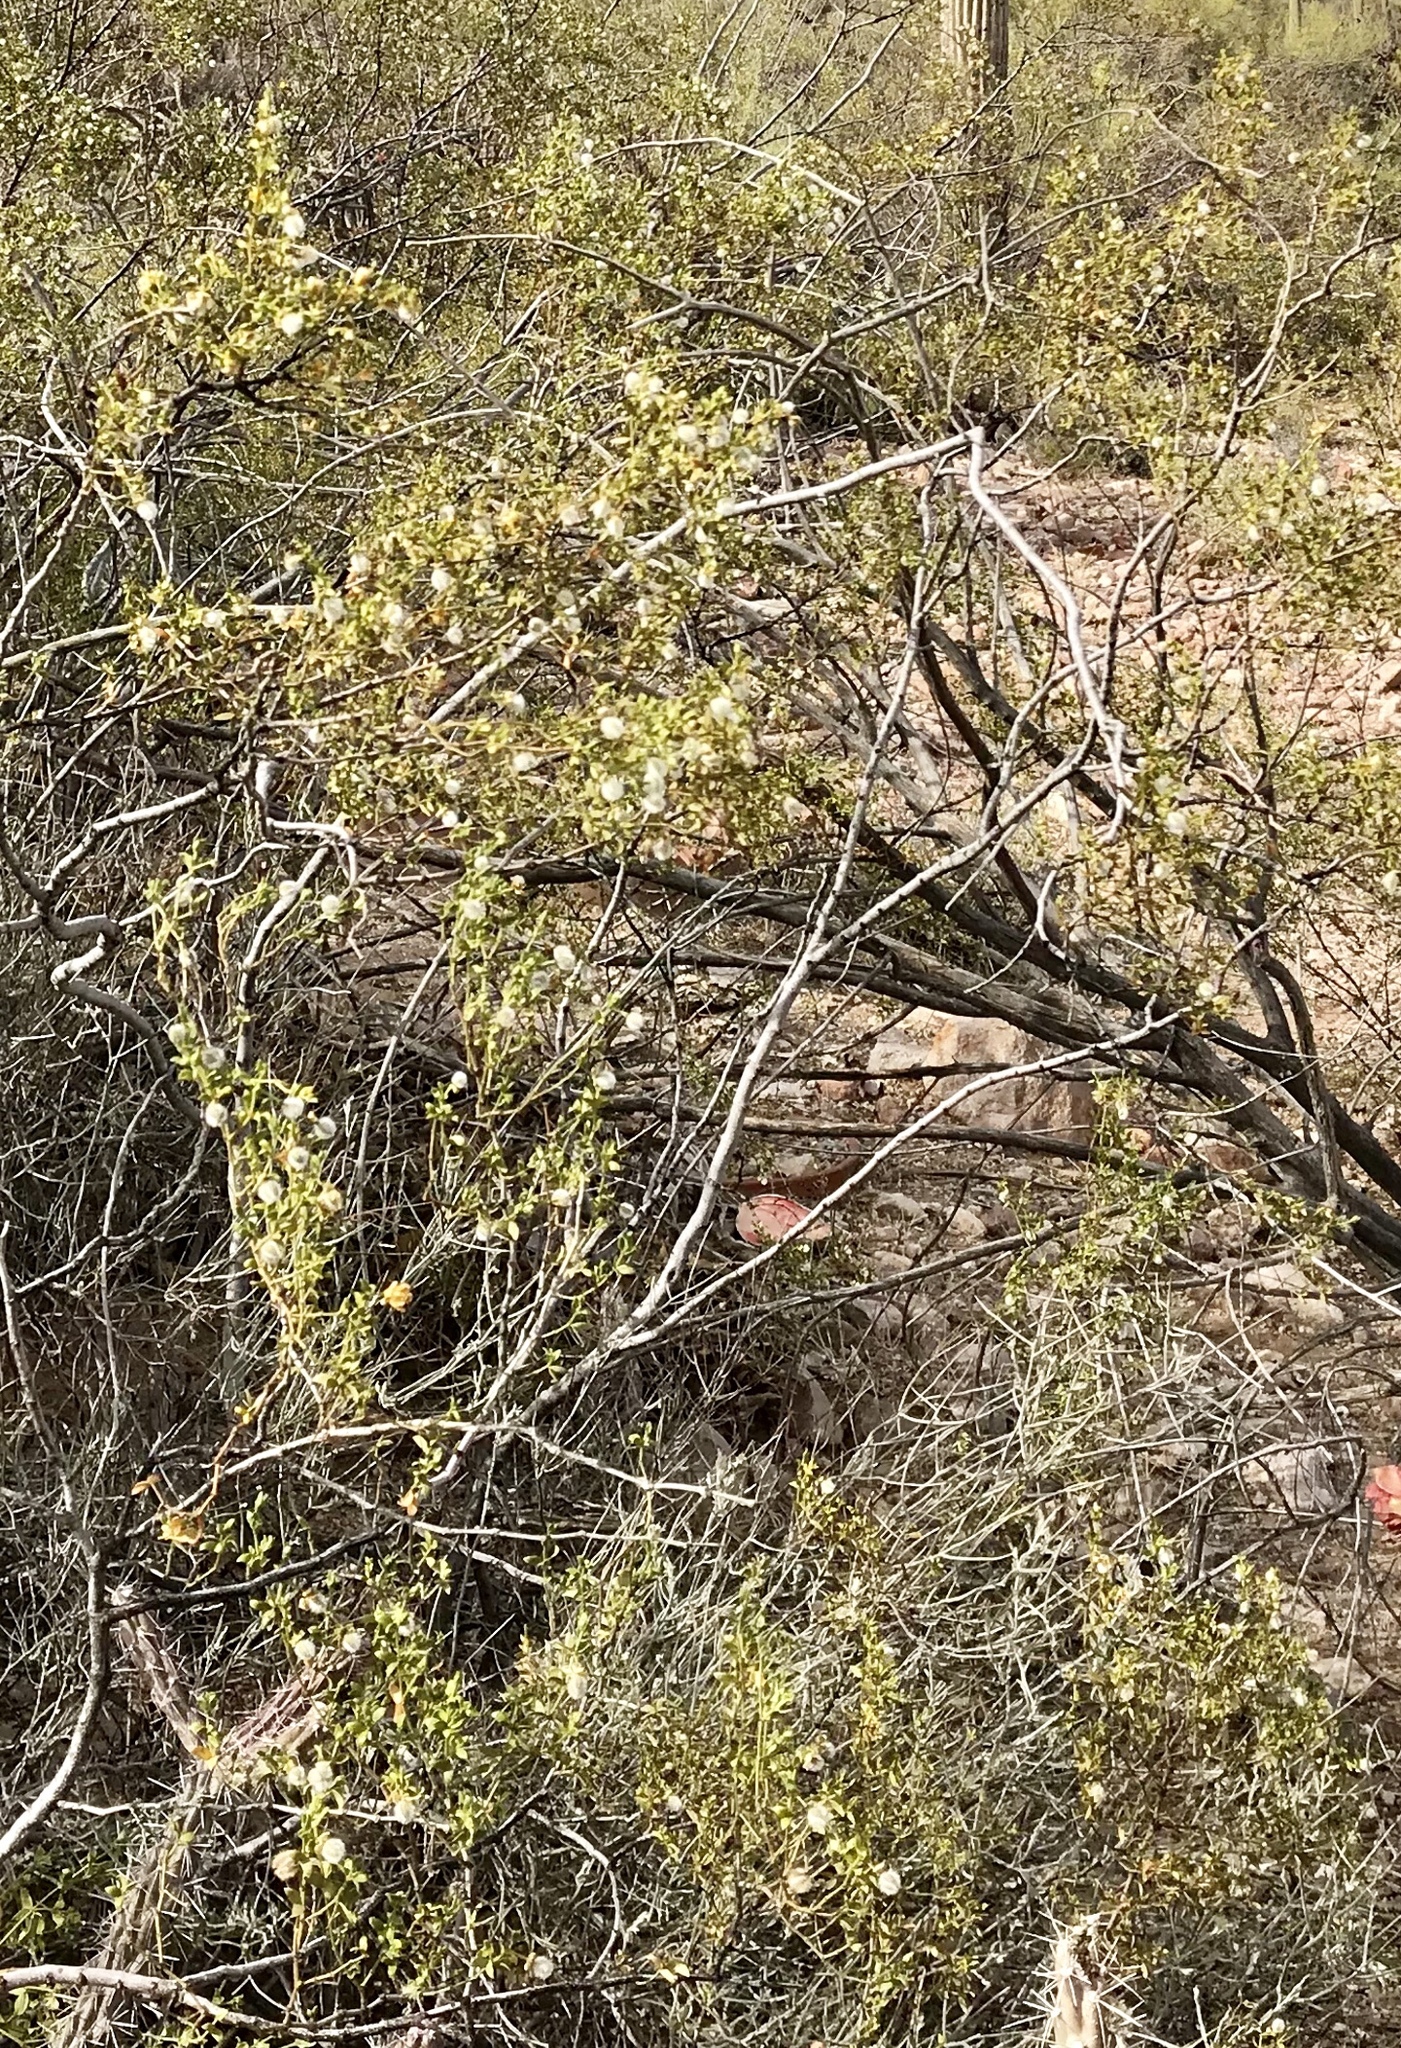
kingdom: Plantae
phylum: Tracheophyta
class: Magnoliopsida
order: Zygophyllales
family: Zygophyllaceae
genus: Larrea
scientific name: Larrea tridentata
